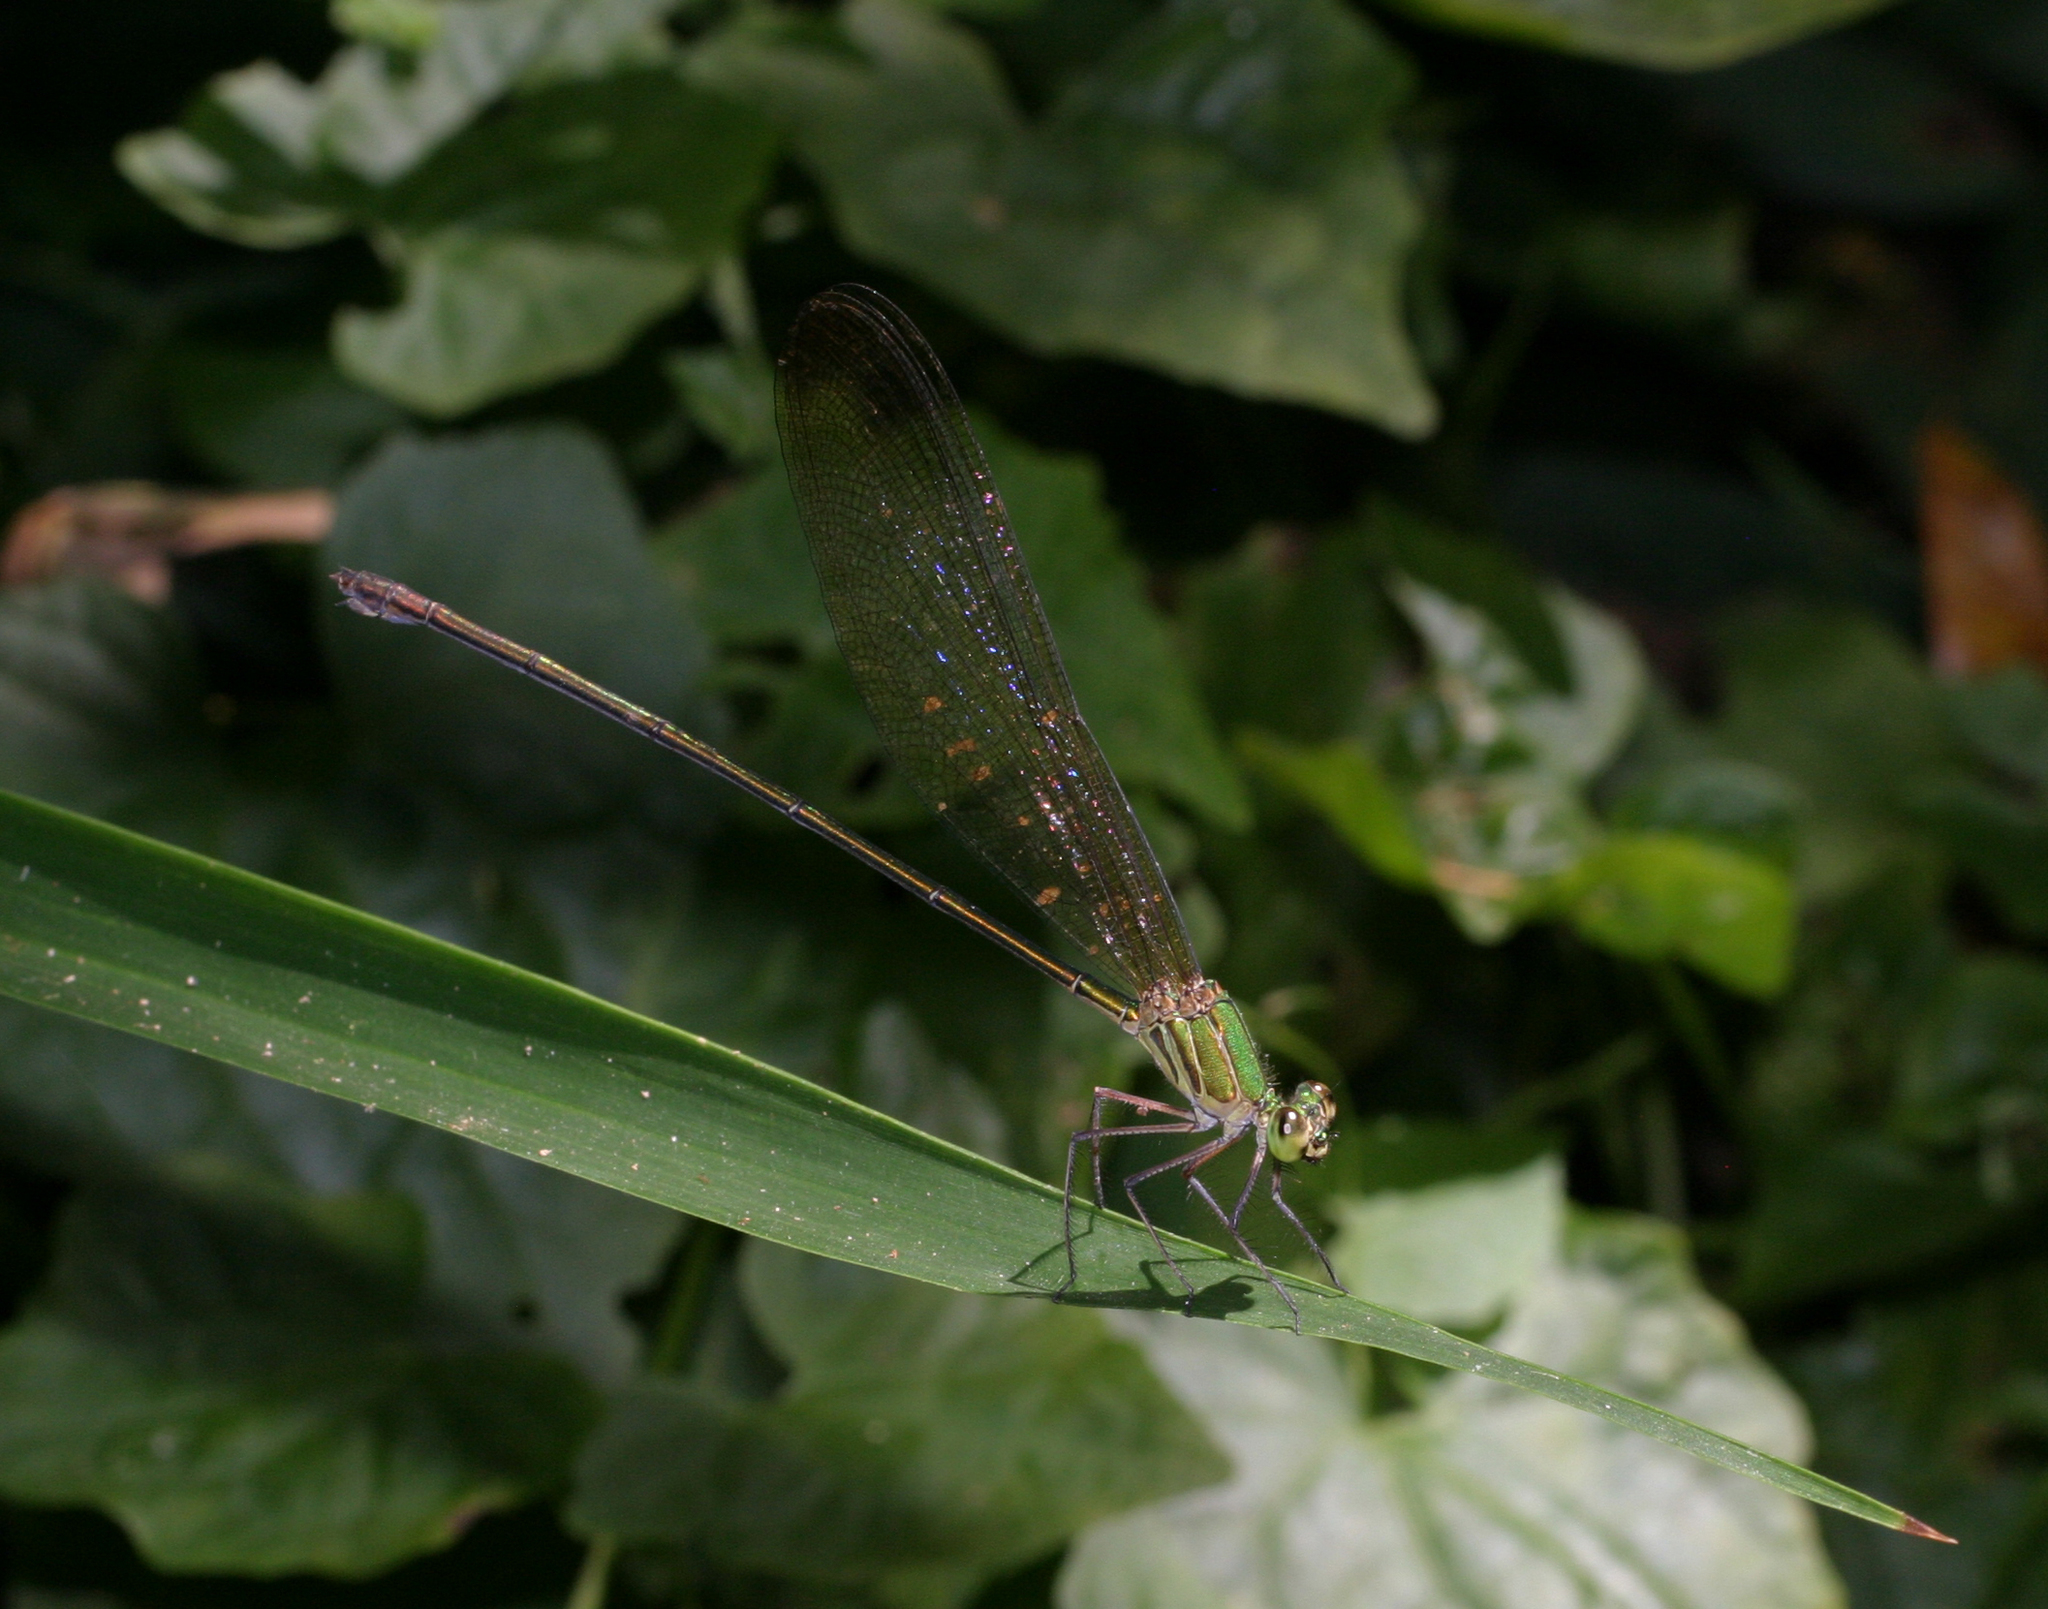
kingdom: Animalia
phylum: Arthropoda
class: Insecta
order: Odonata
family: Calopterygidae
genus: Vestalis
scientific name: Vestalis gracilis
